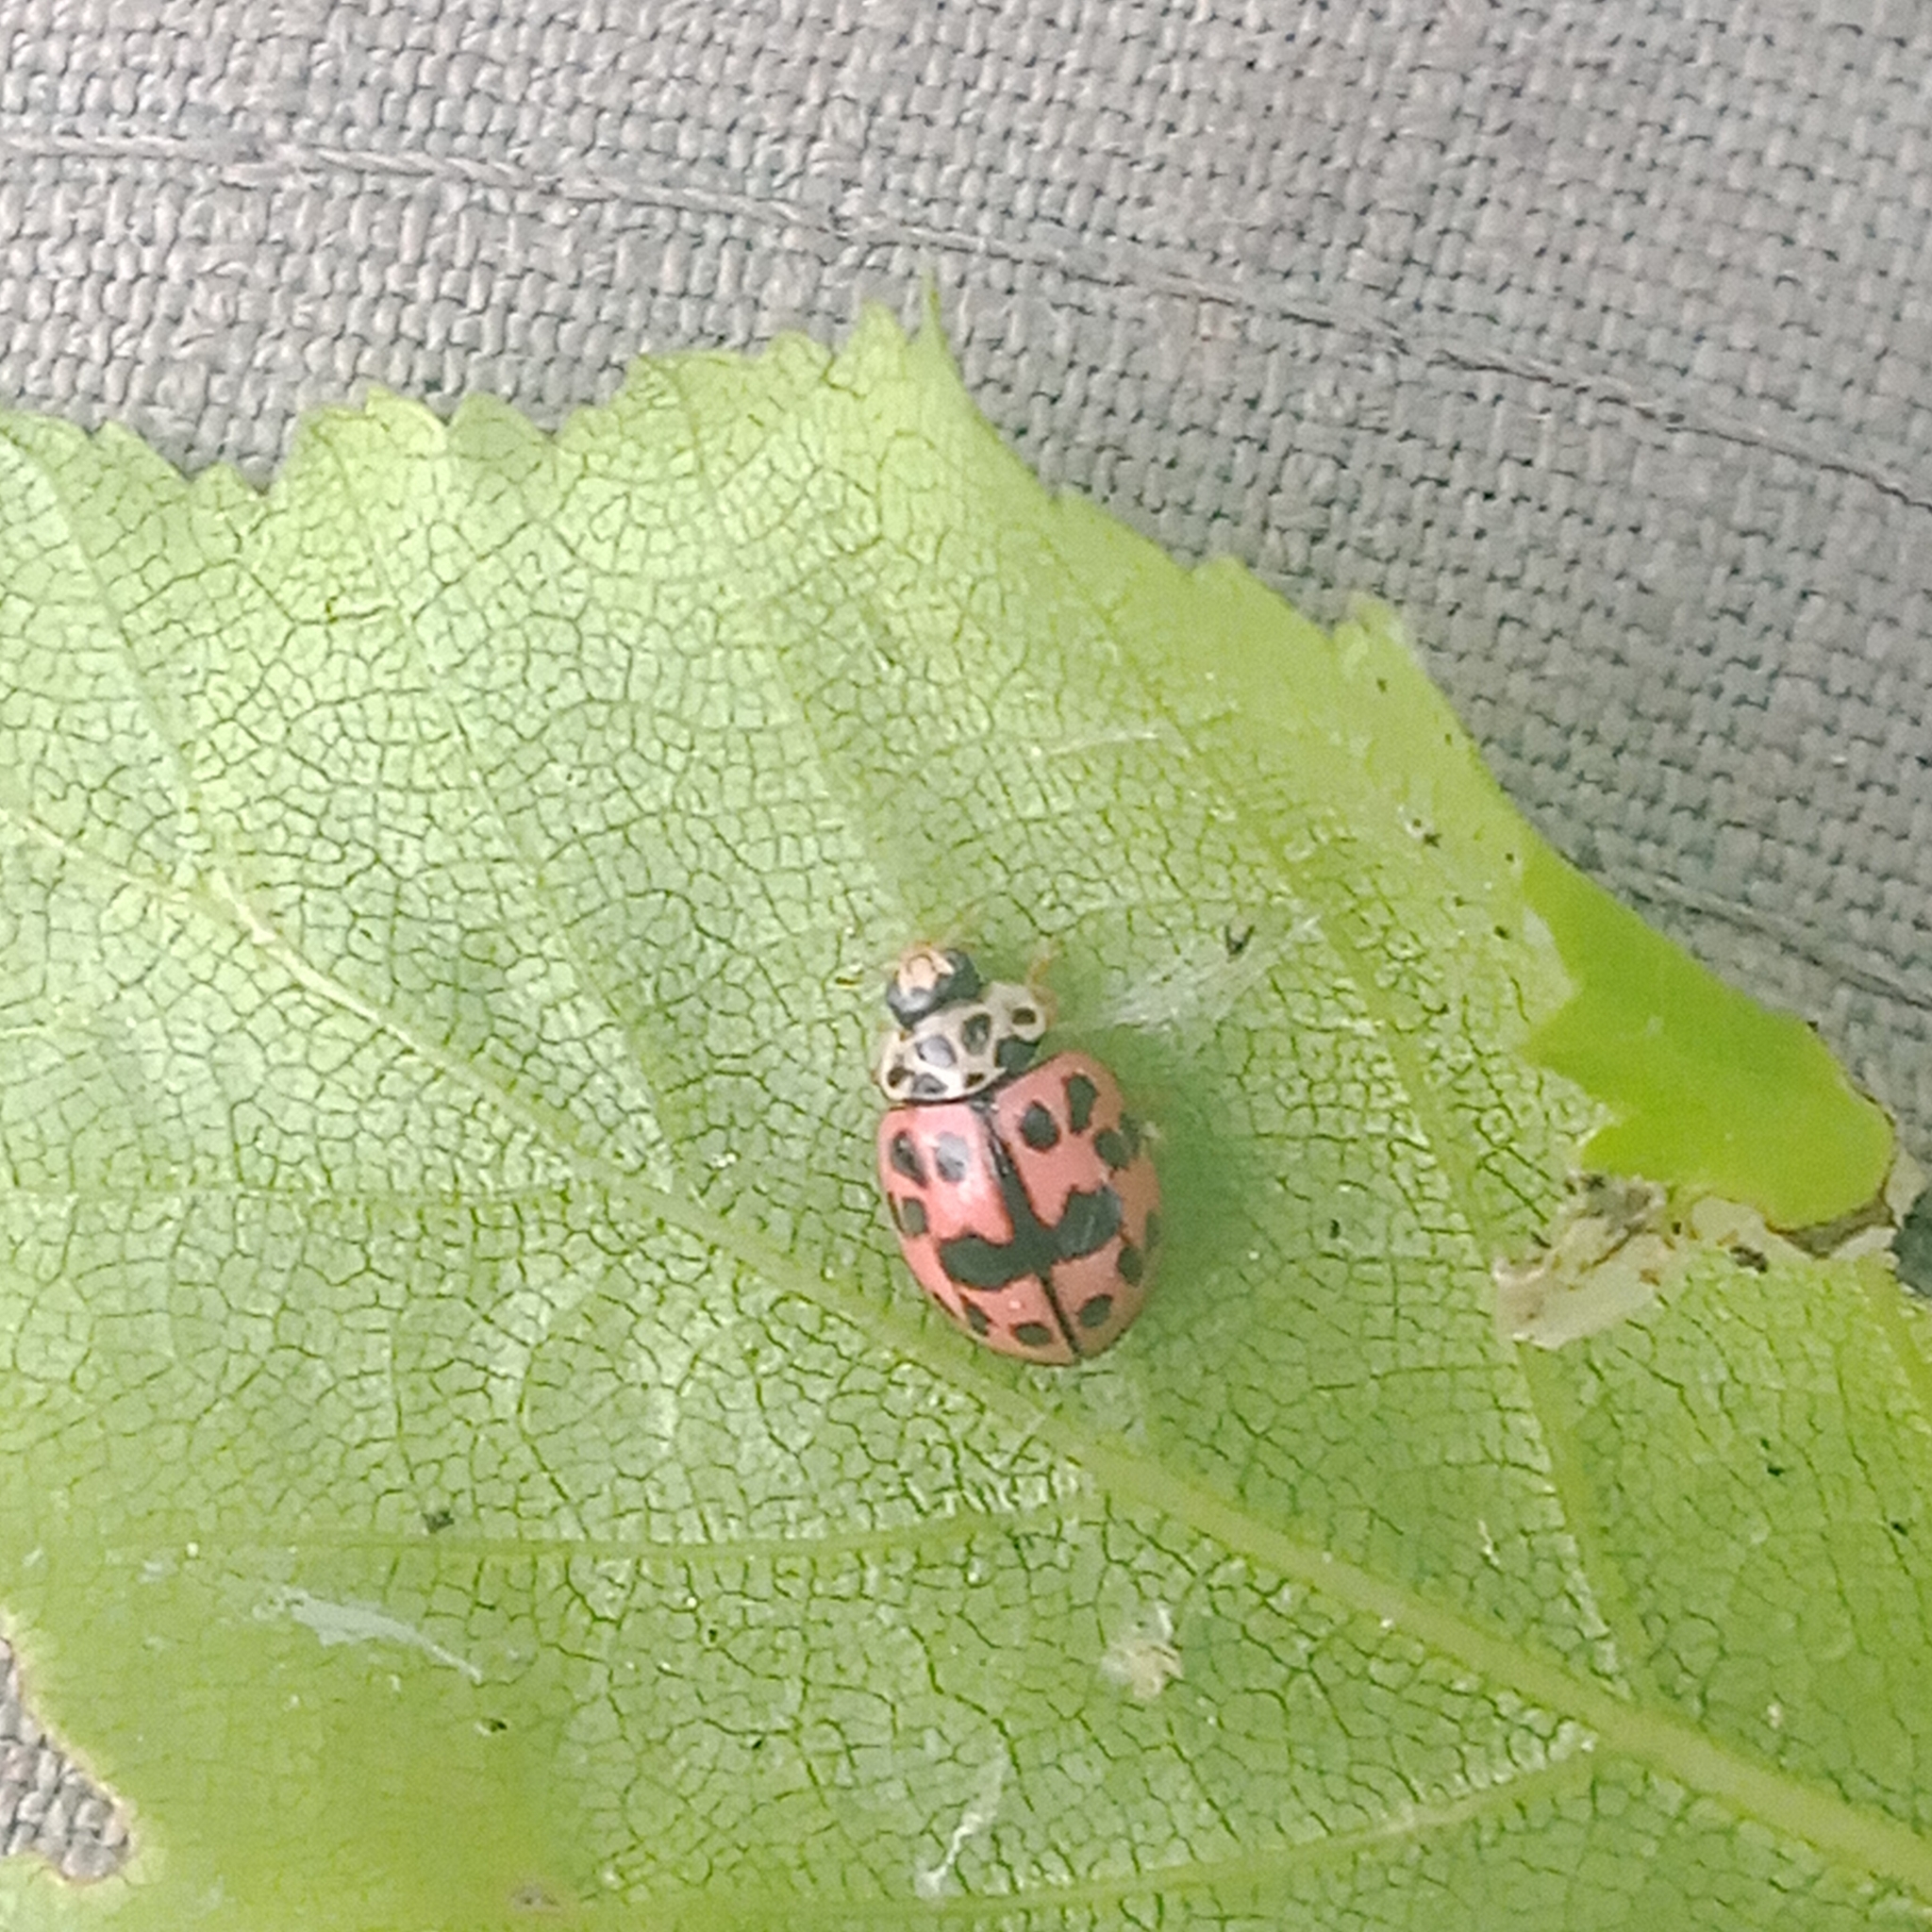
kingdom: Animalia
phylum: Arthropoda
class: Insecta
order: Coleoptera
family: Coccinellidae
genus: Oenopia
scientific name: Oenopia conglobata
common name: Ladybird beetle
